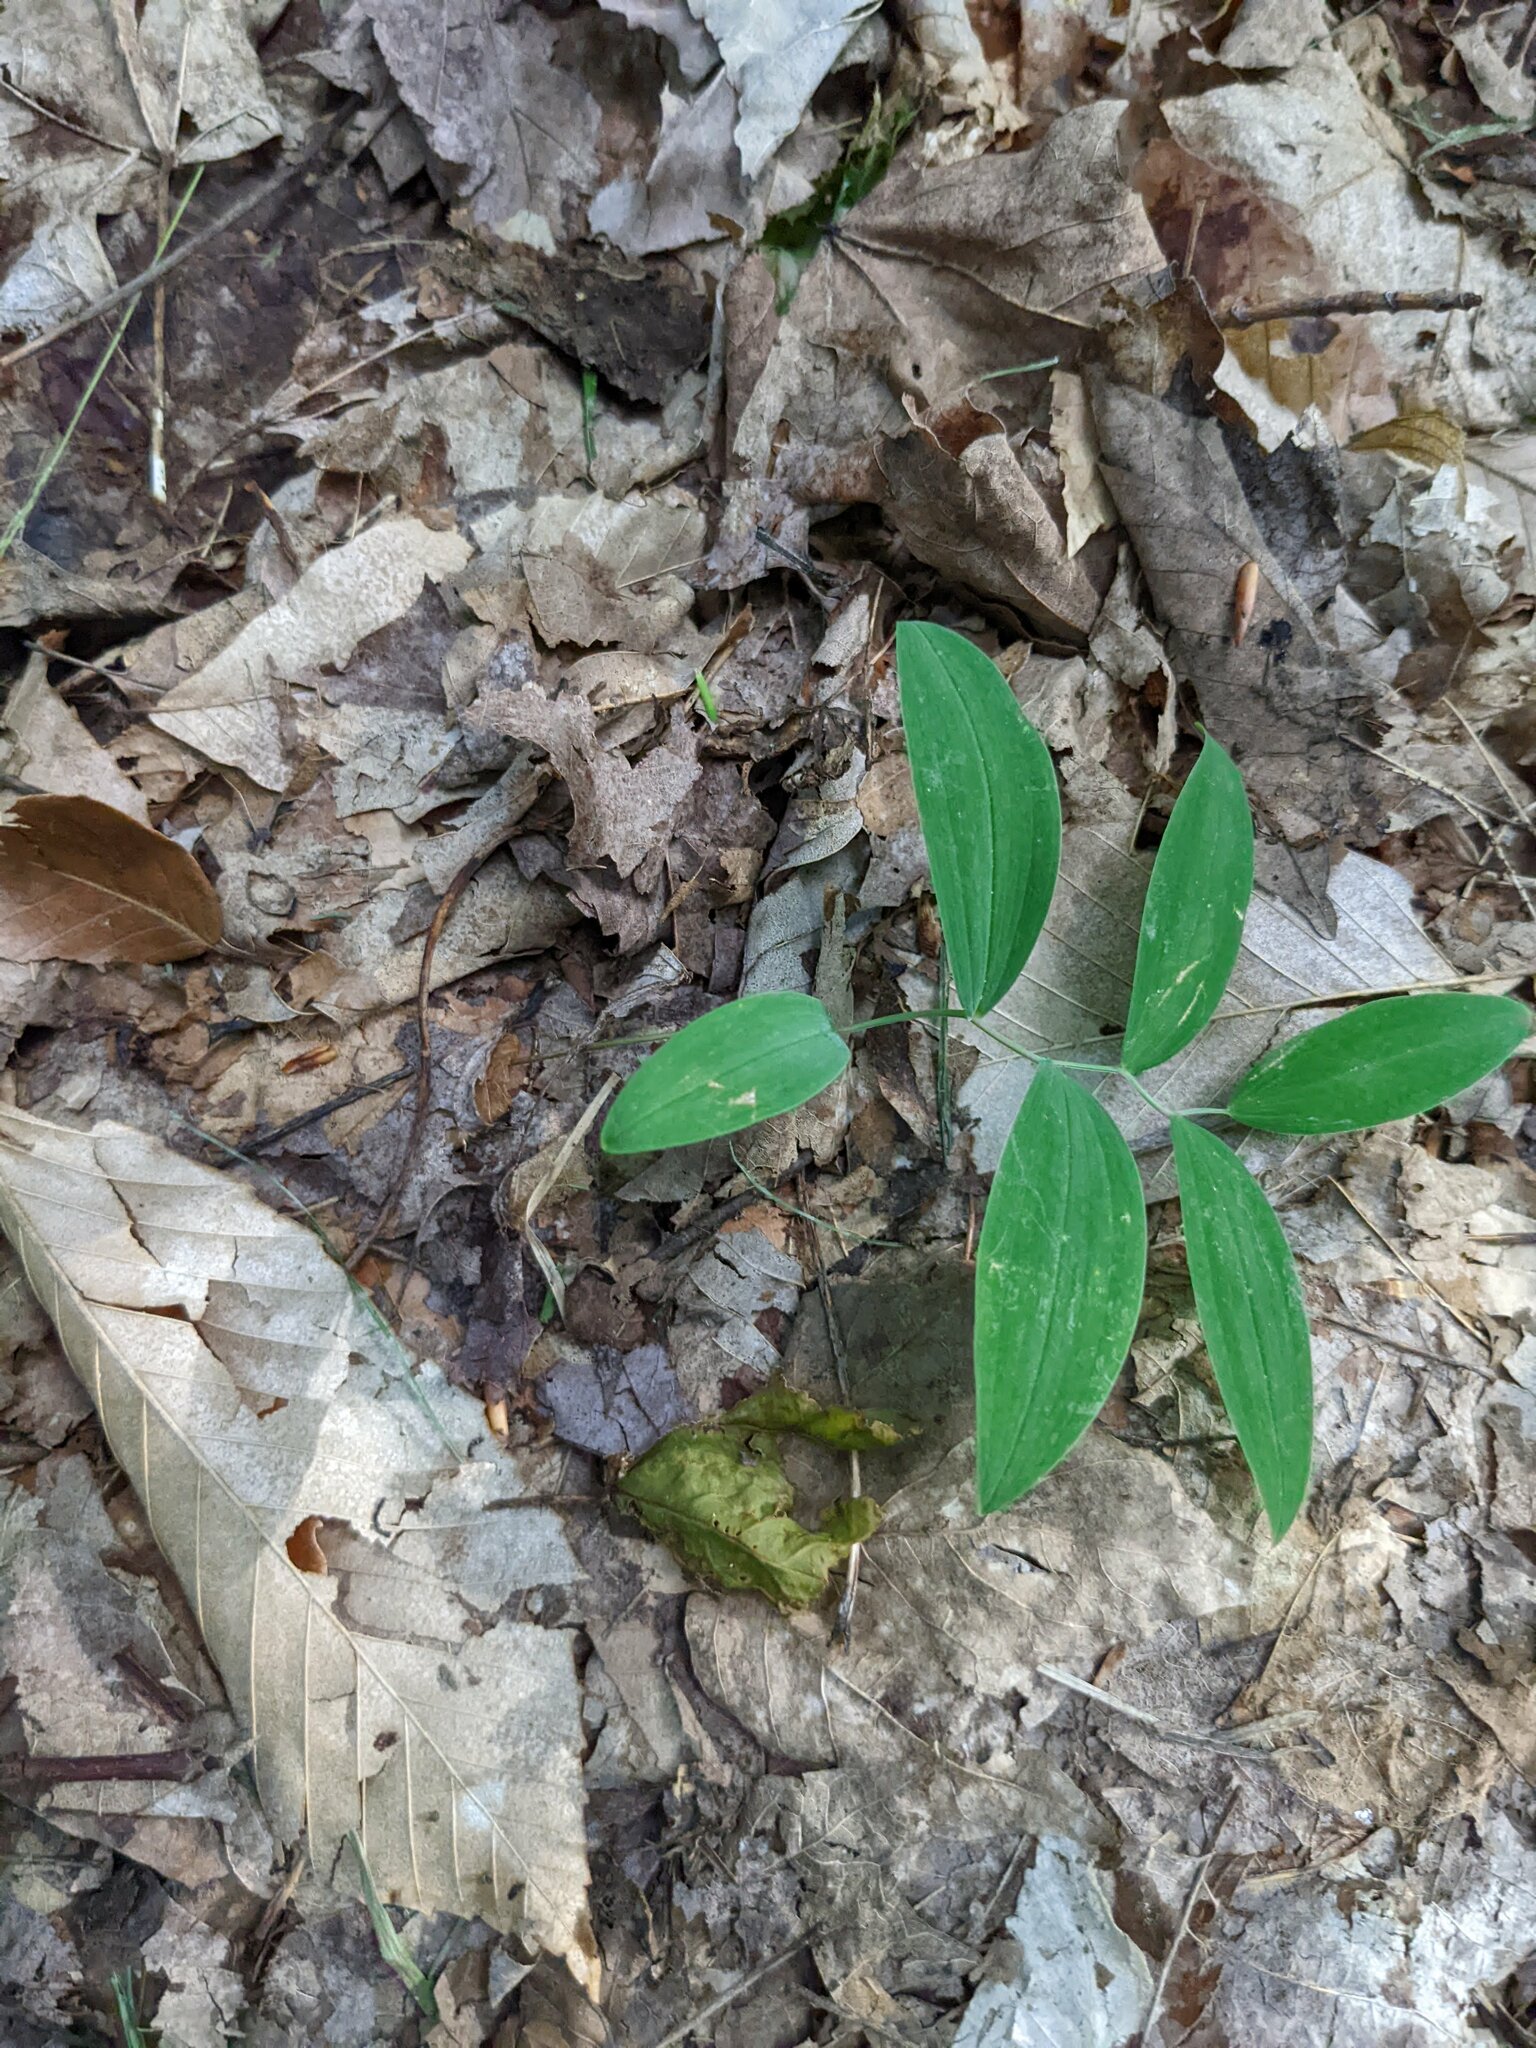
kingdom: Plantae
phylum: Tracheophyta
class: Liliopsida
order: Liliales
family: Colchicaceae
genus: Uvularia
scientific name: Uvularia sessilifolia
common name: Straw-lily
